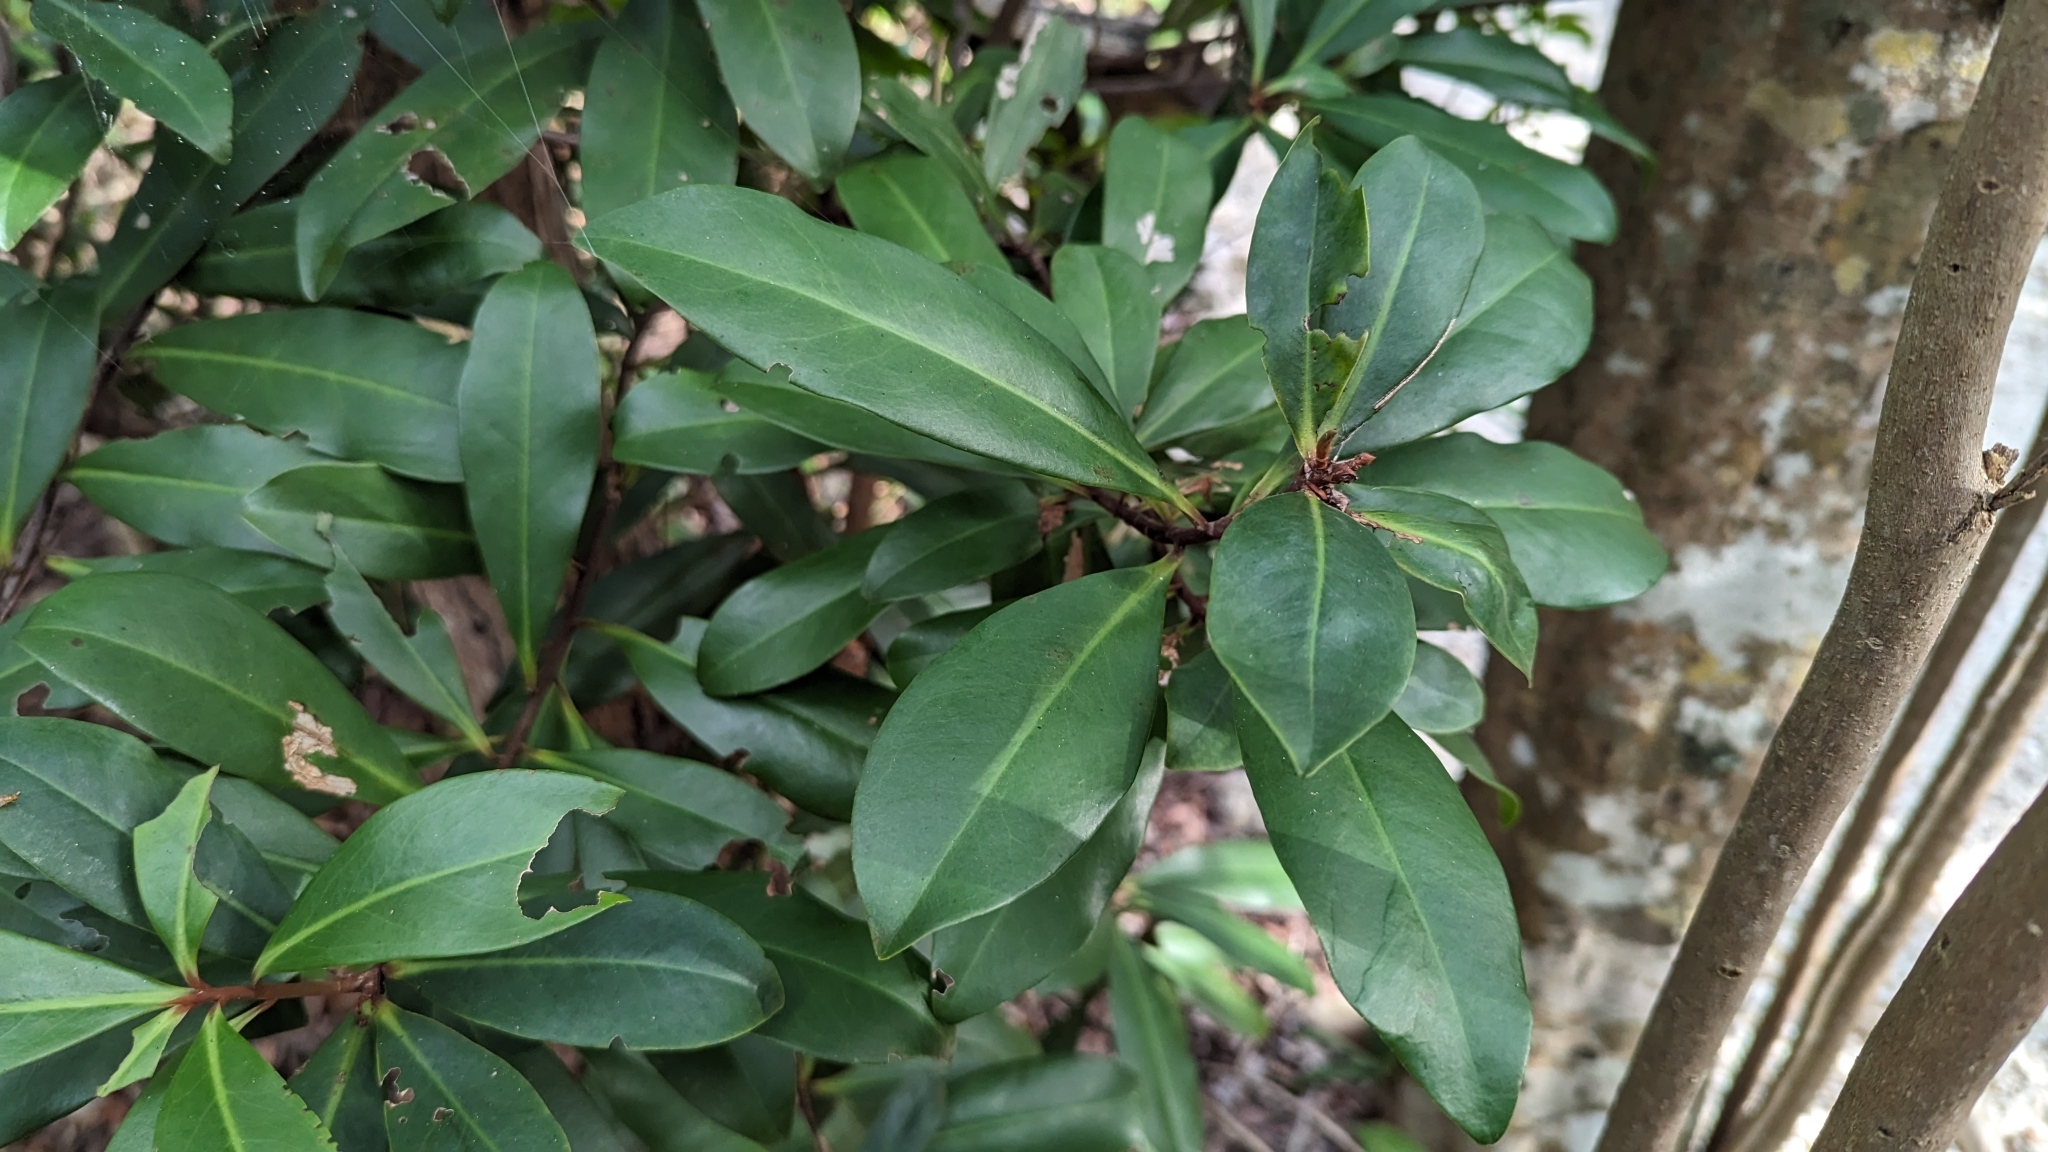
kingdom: Plantae
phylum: Tracheophyta
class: Magnoliopsida
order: Ericales
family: Primulaceae
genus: Ardisia
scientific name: Ardisia escallonioides
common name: Island marlberry
